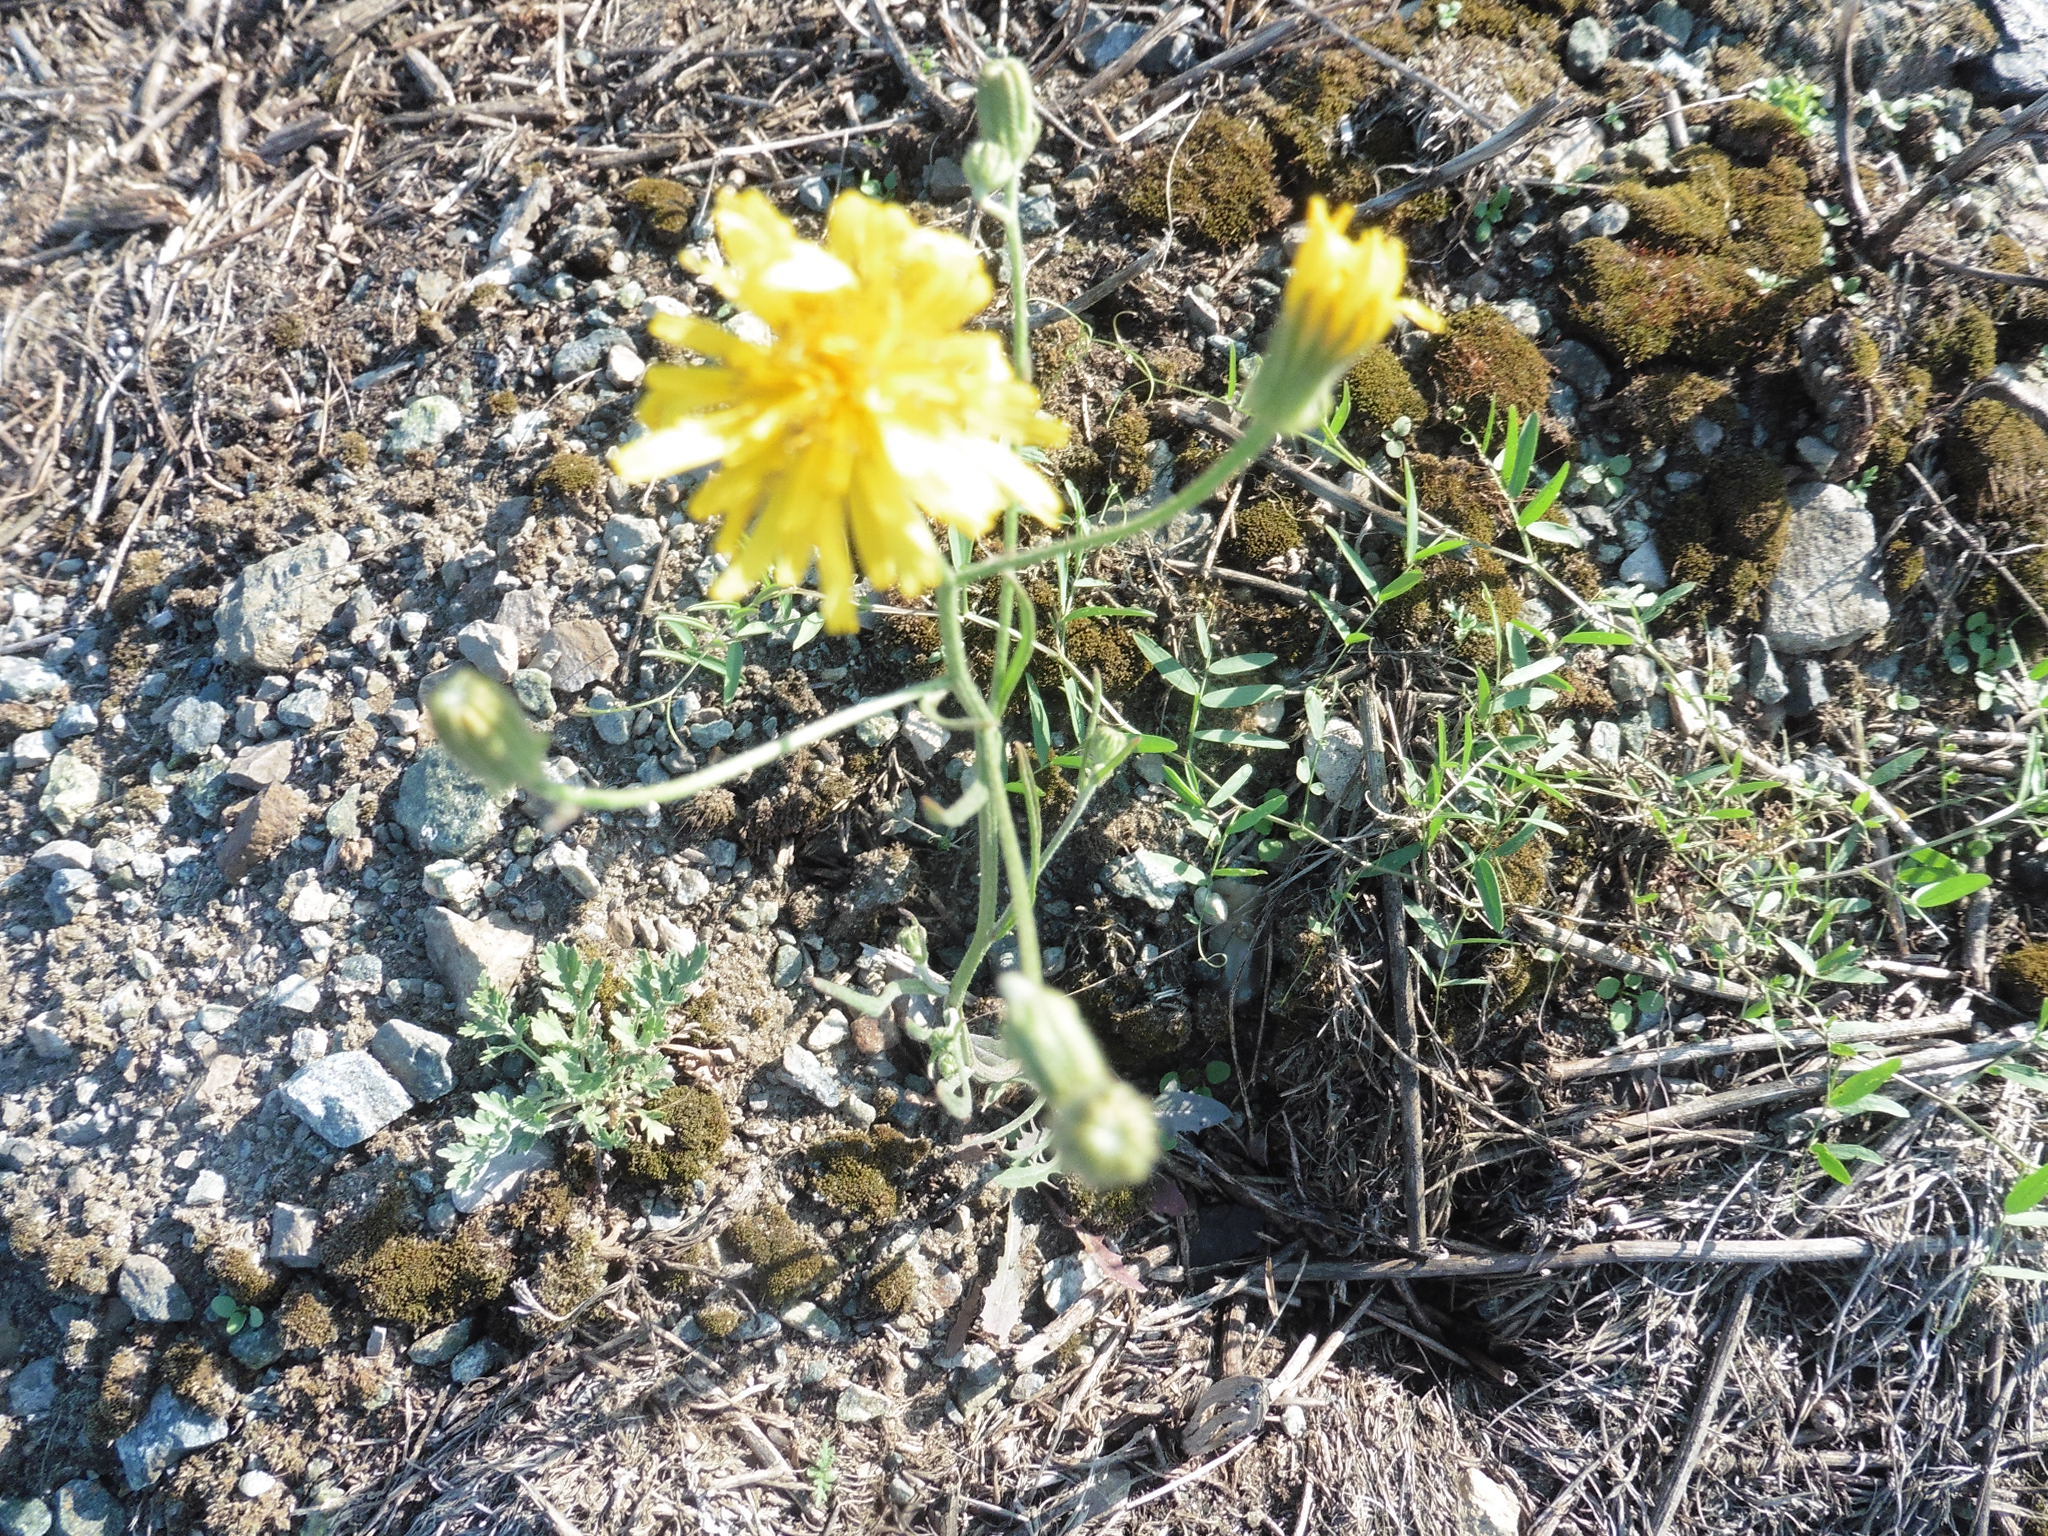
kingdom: Plantae
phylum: Tracheophyta
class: Magnoliopsida
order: Asterales
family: Asteraceae
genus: Crepis
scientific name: Crepis tectorum
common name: Narrow-leaved hawk's-beard
